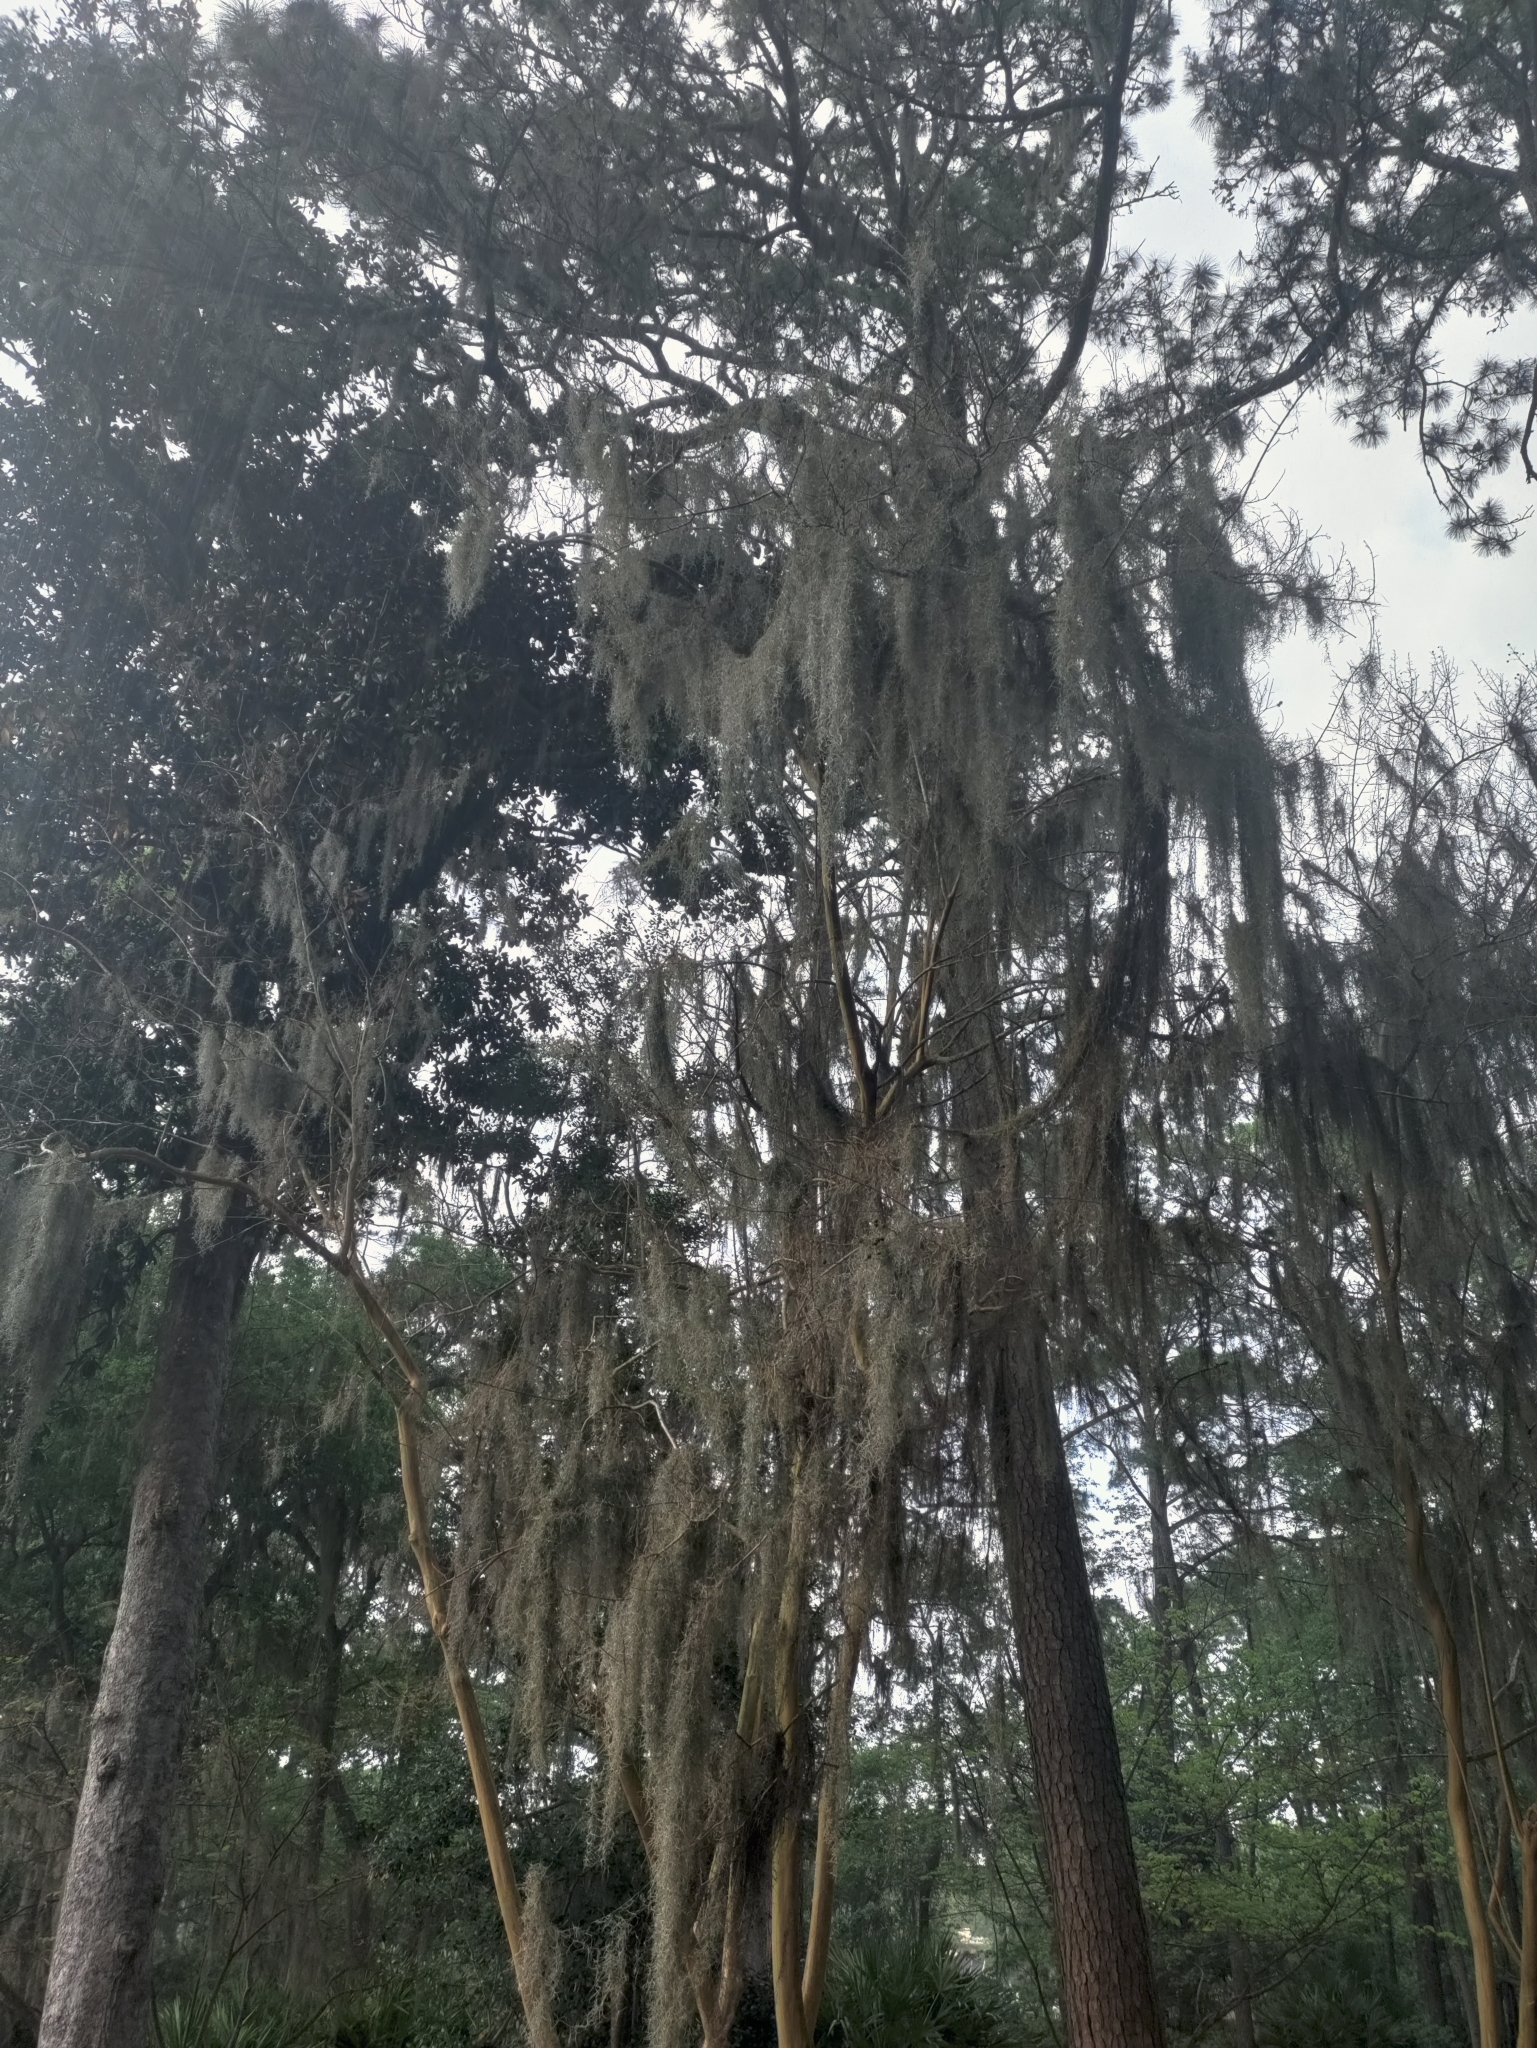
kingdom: Plantae
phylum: Tracheophyta
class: Liliopsida
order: Poales
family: Bromeliaceae
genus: Tillandsia
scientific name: Tillandsia usneoides
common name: Spanish moss
